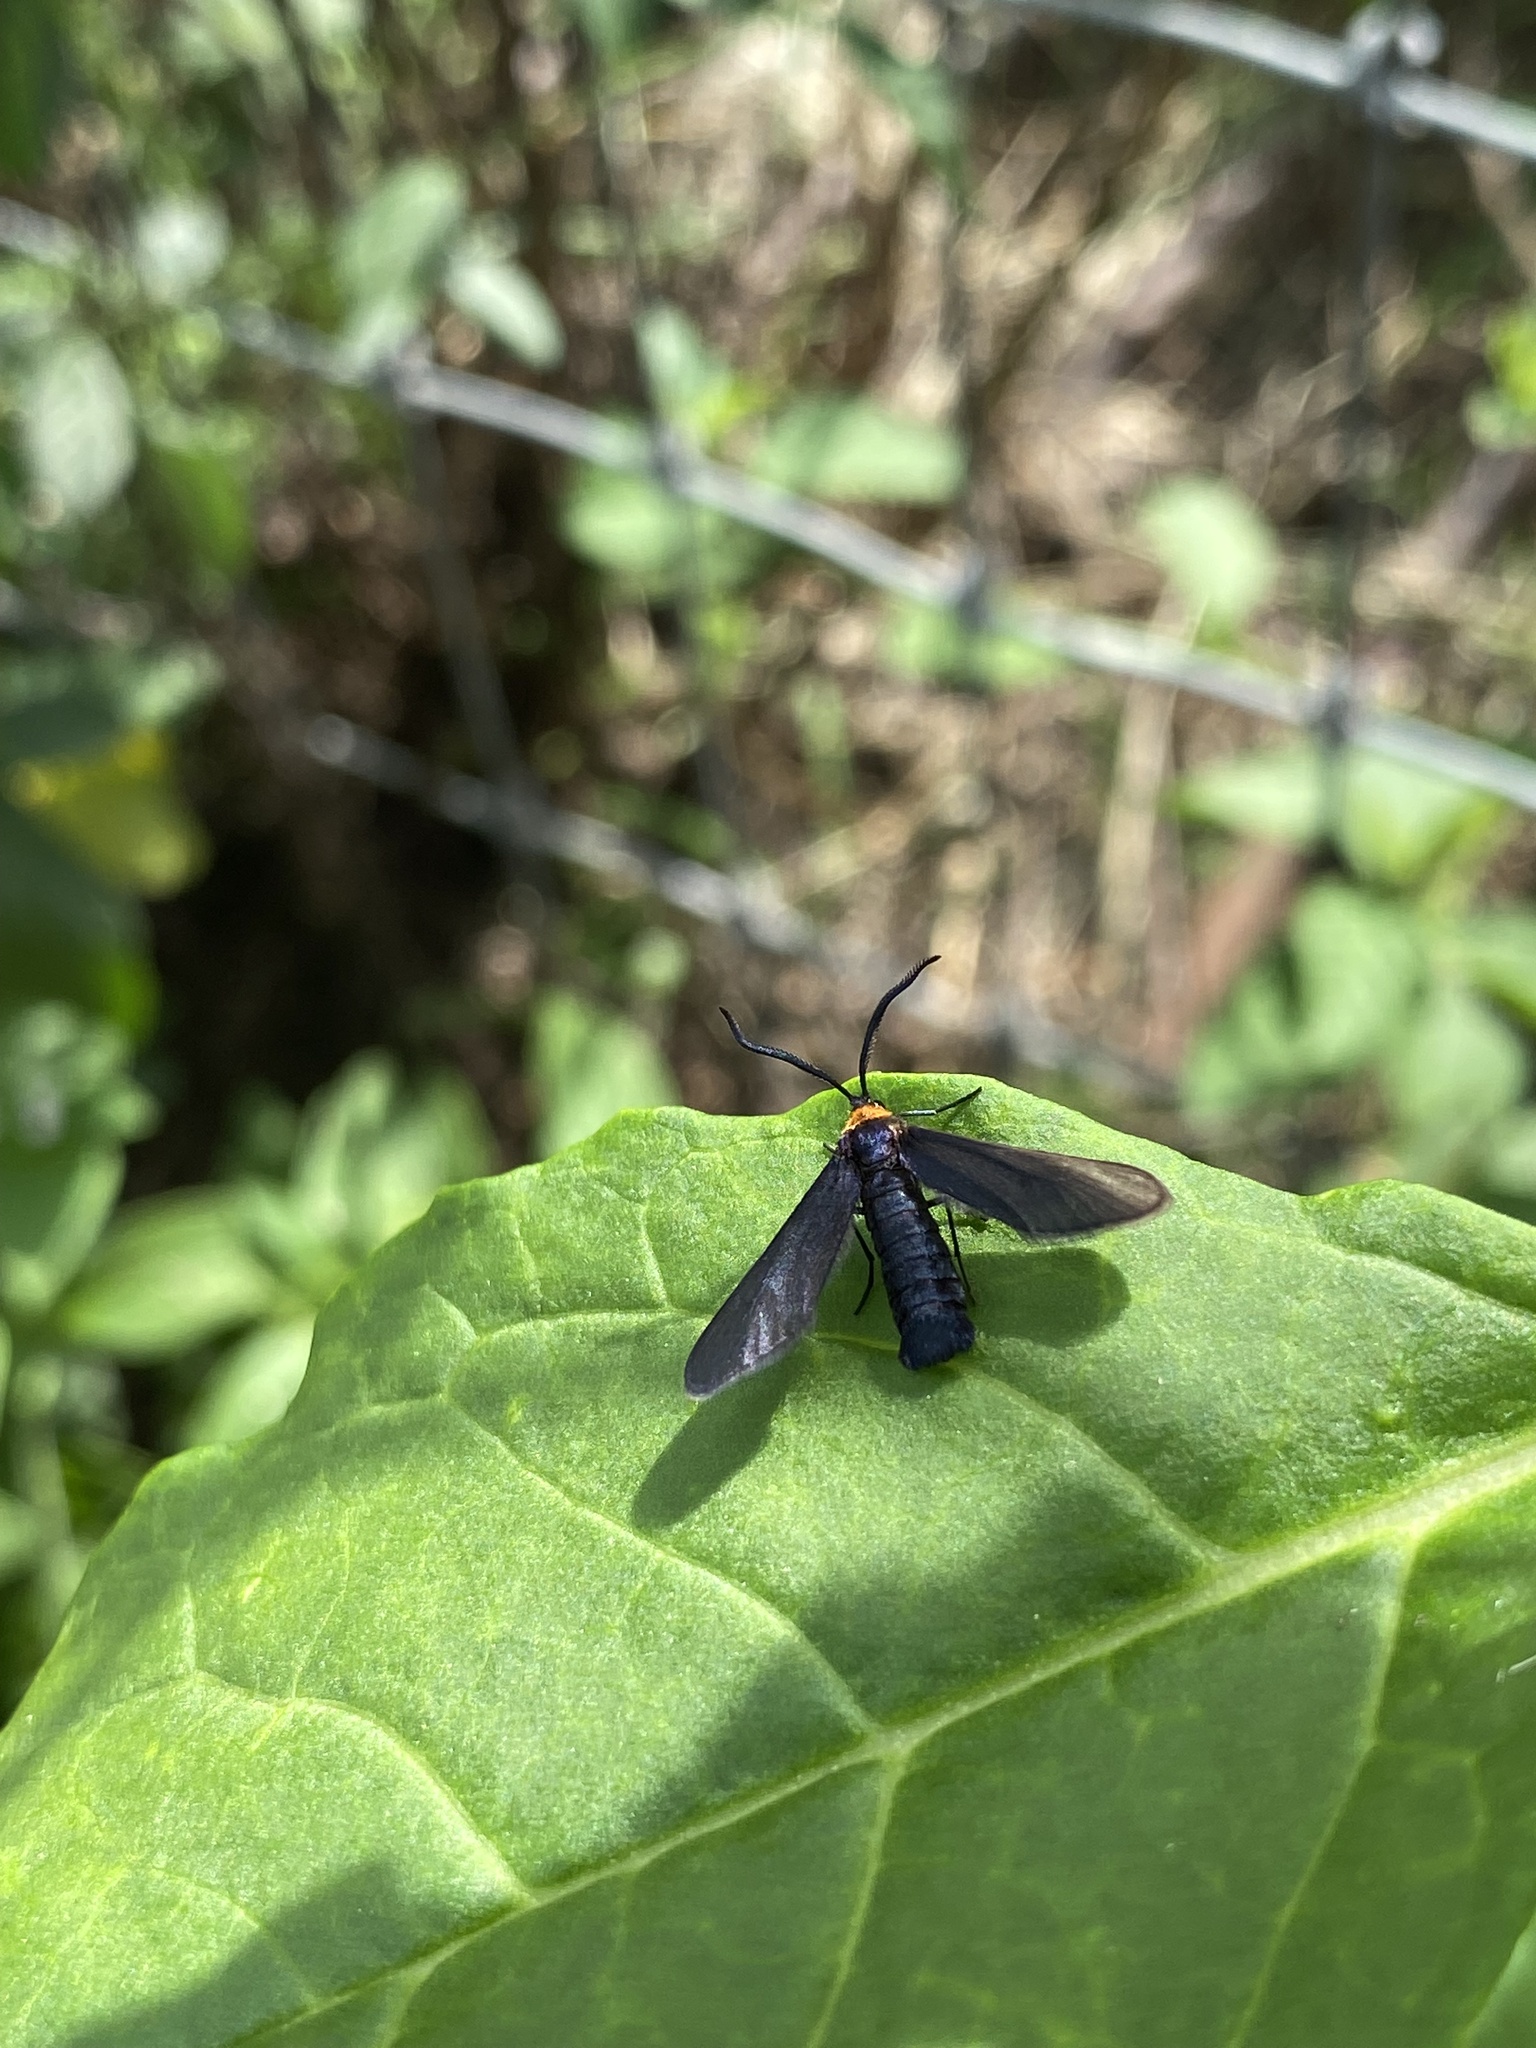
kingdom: Animalia
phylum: Arthropoda
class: Insecta
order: Lepidoptera
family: Zygaenidae
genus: Harrisina
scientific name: Harrisina americana
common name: Grapeleaf skeletonizer moth
